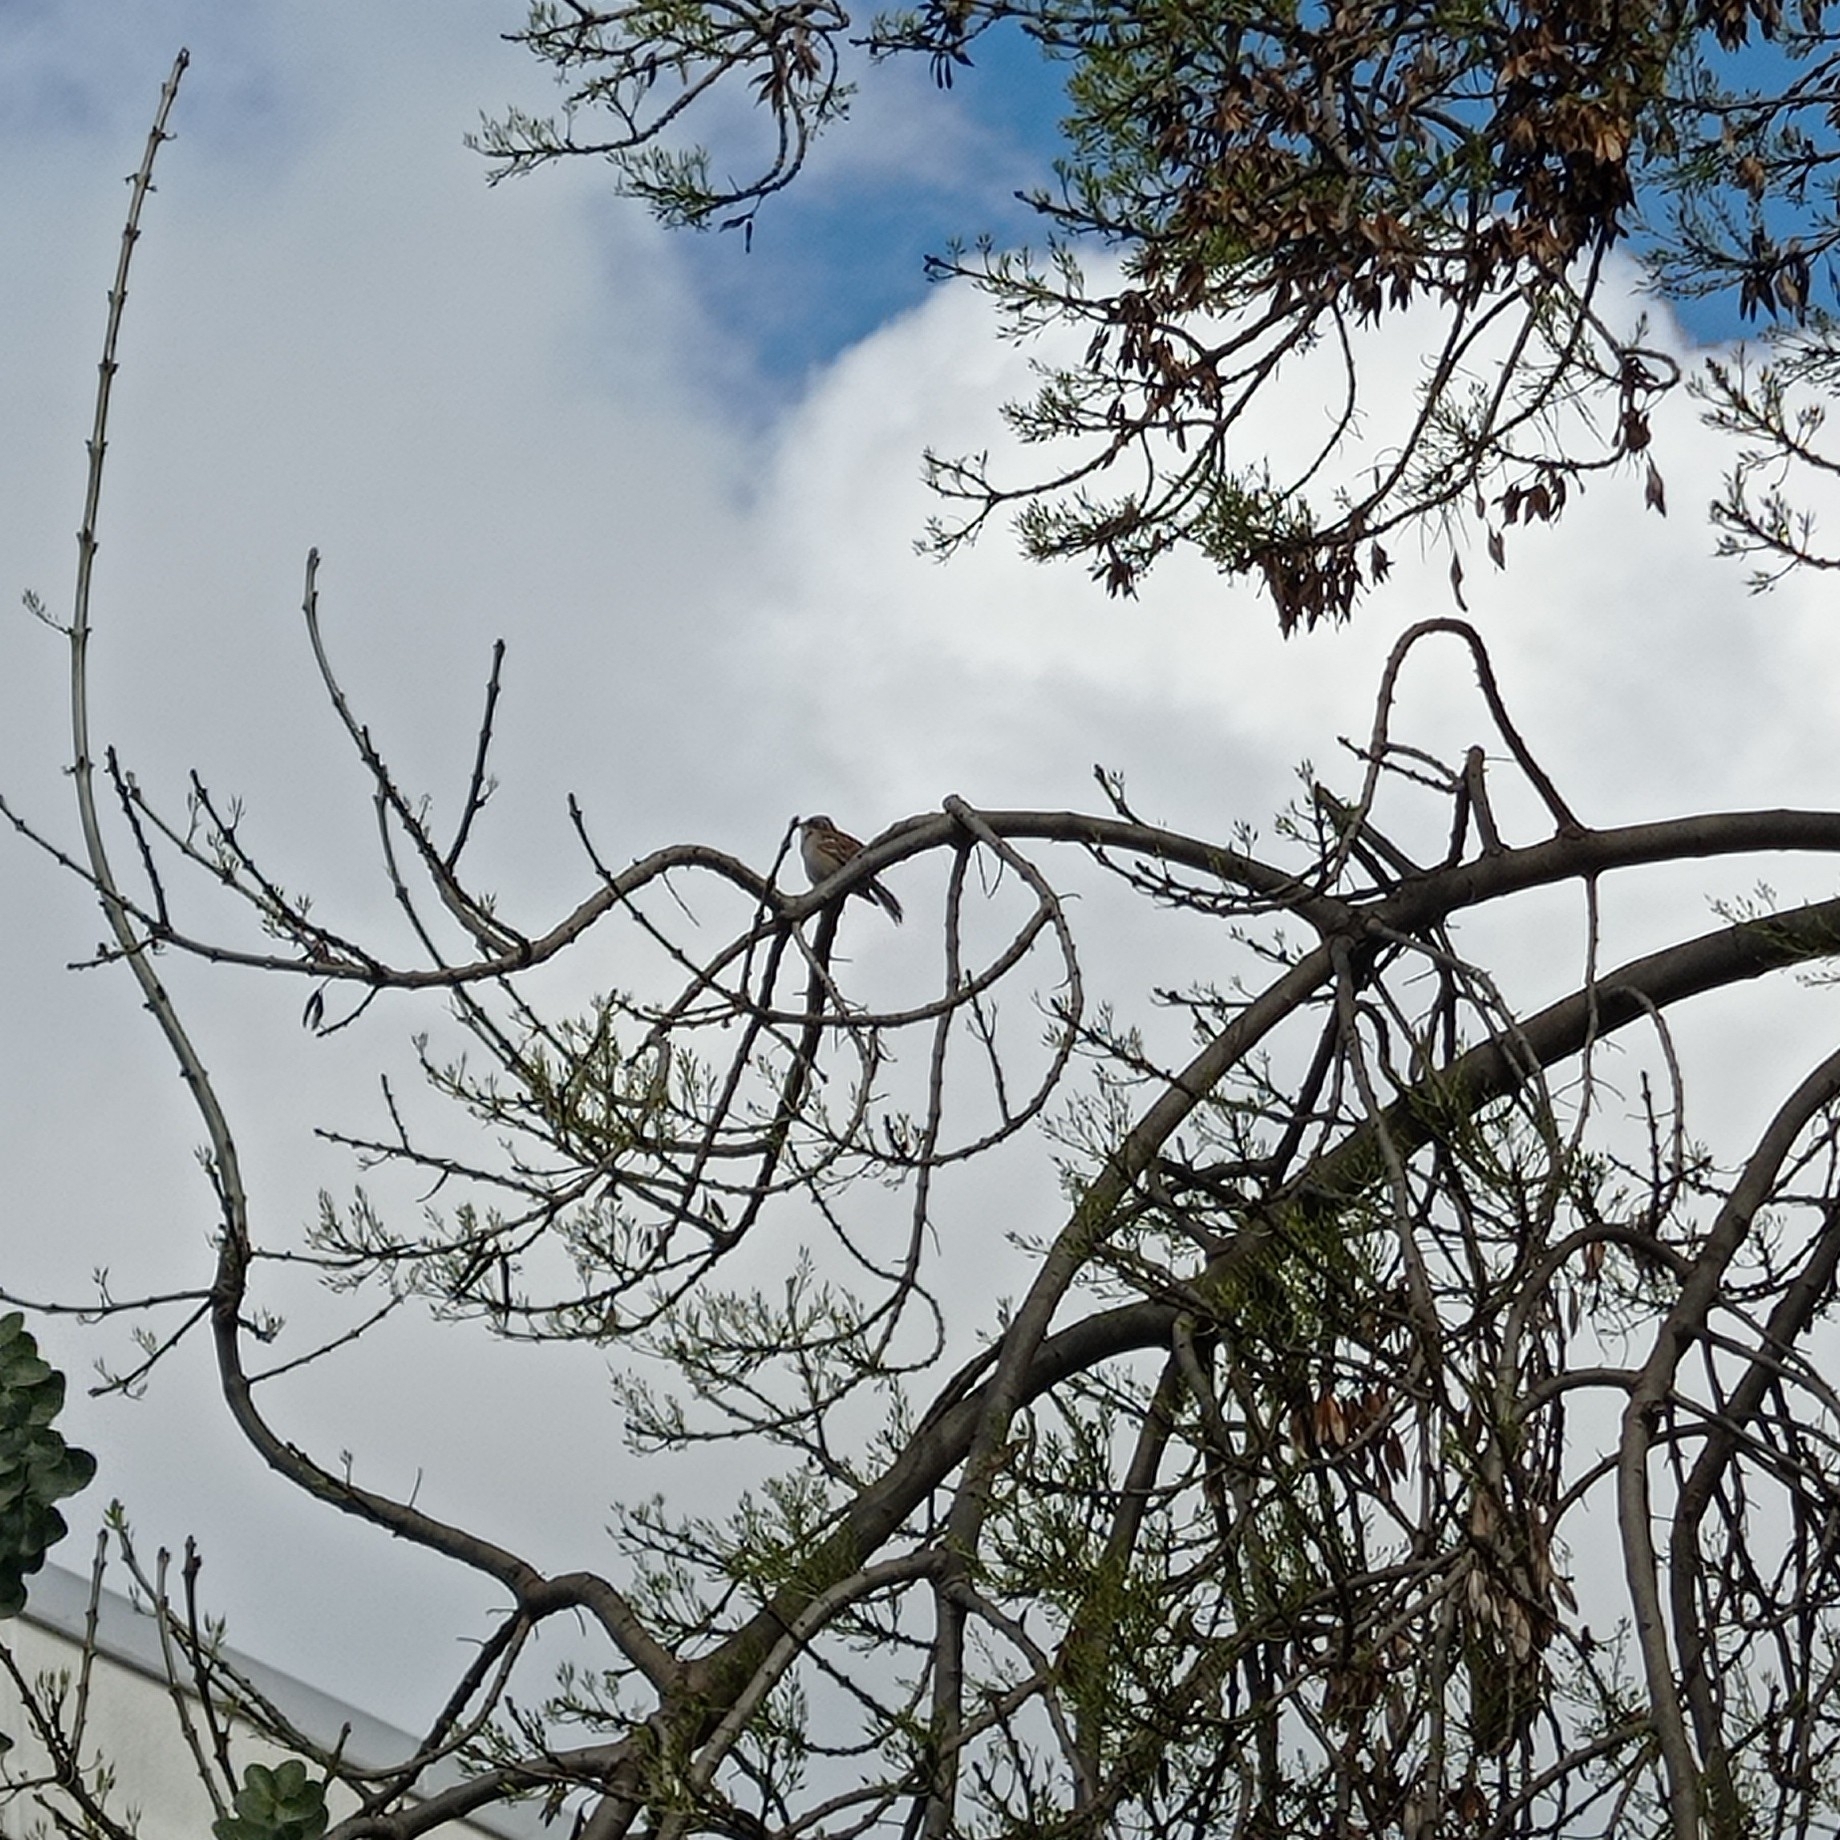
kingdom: Animalia
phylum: Chordata
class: Aves
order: Passeriformes
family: Passerellidae
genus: Zonotrichia
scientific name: Zonotrichia capensis
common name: Rufous-collared sparrow
